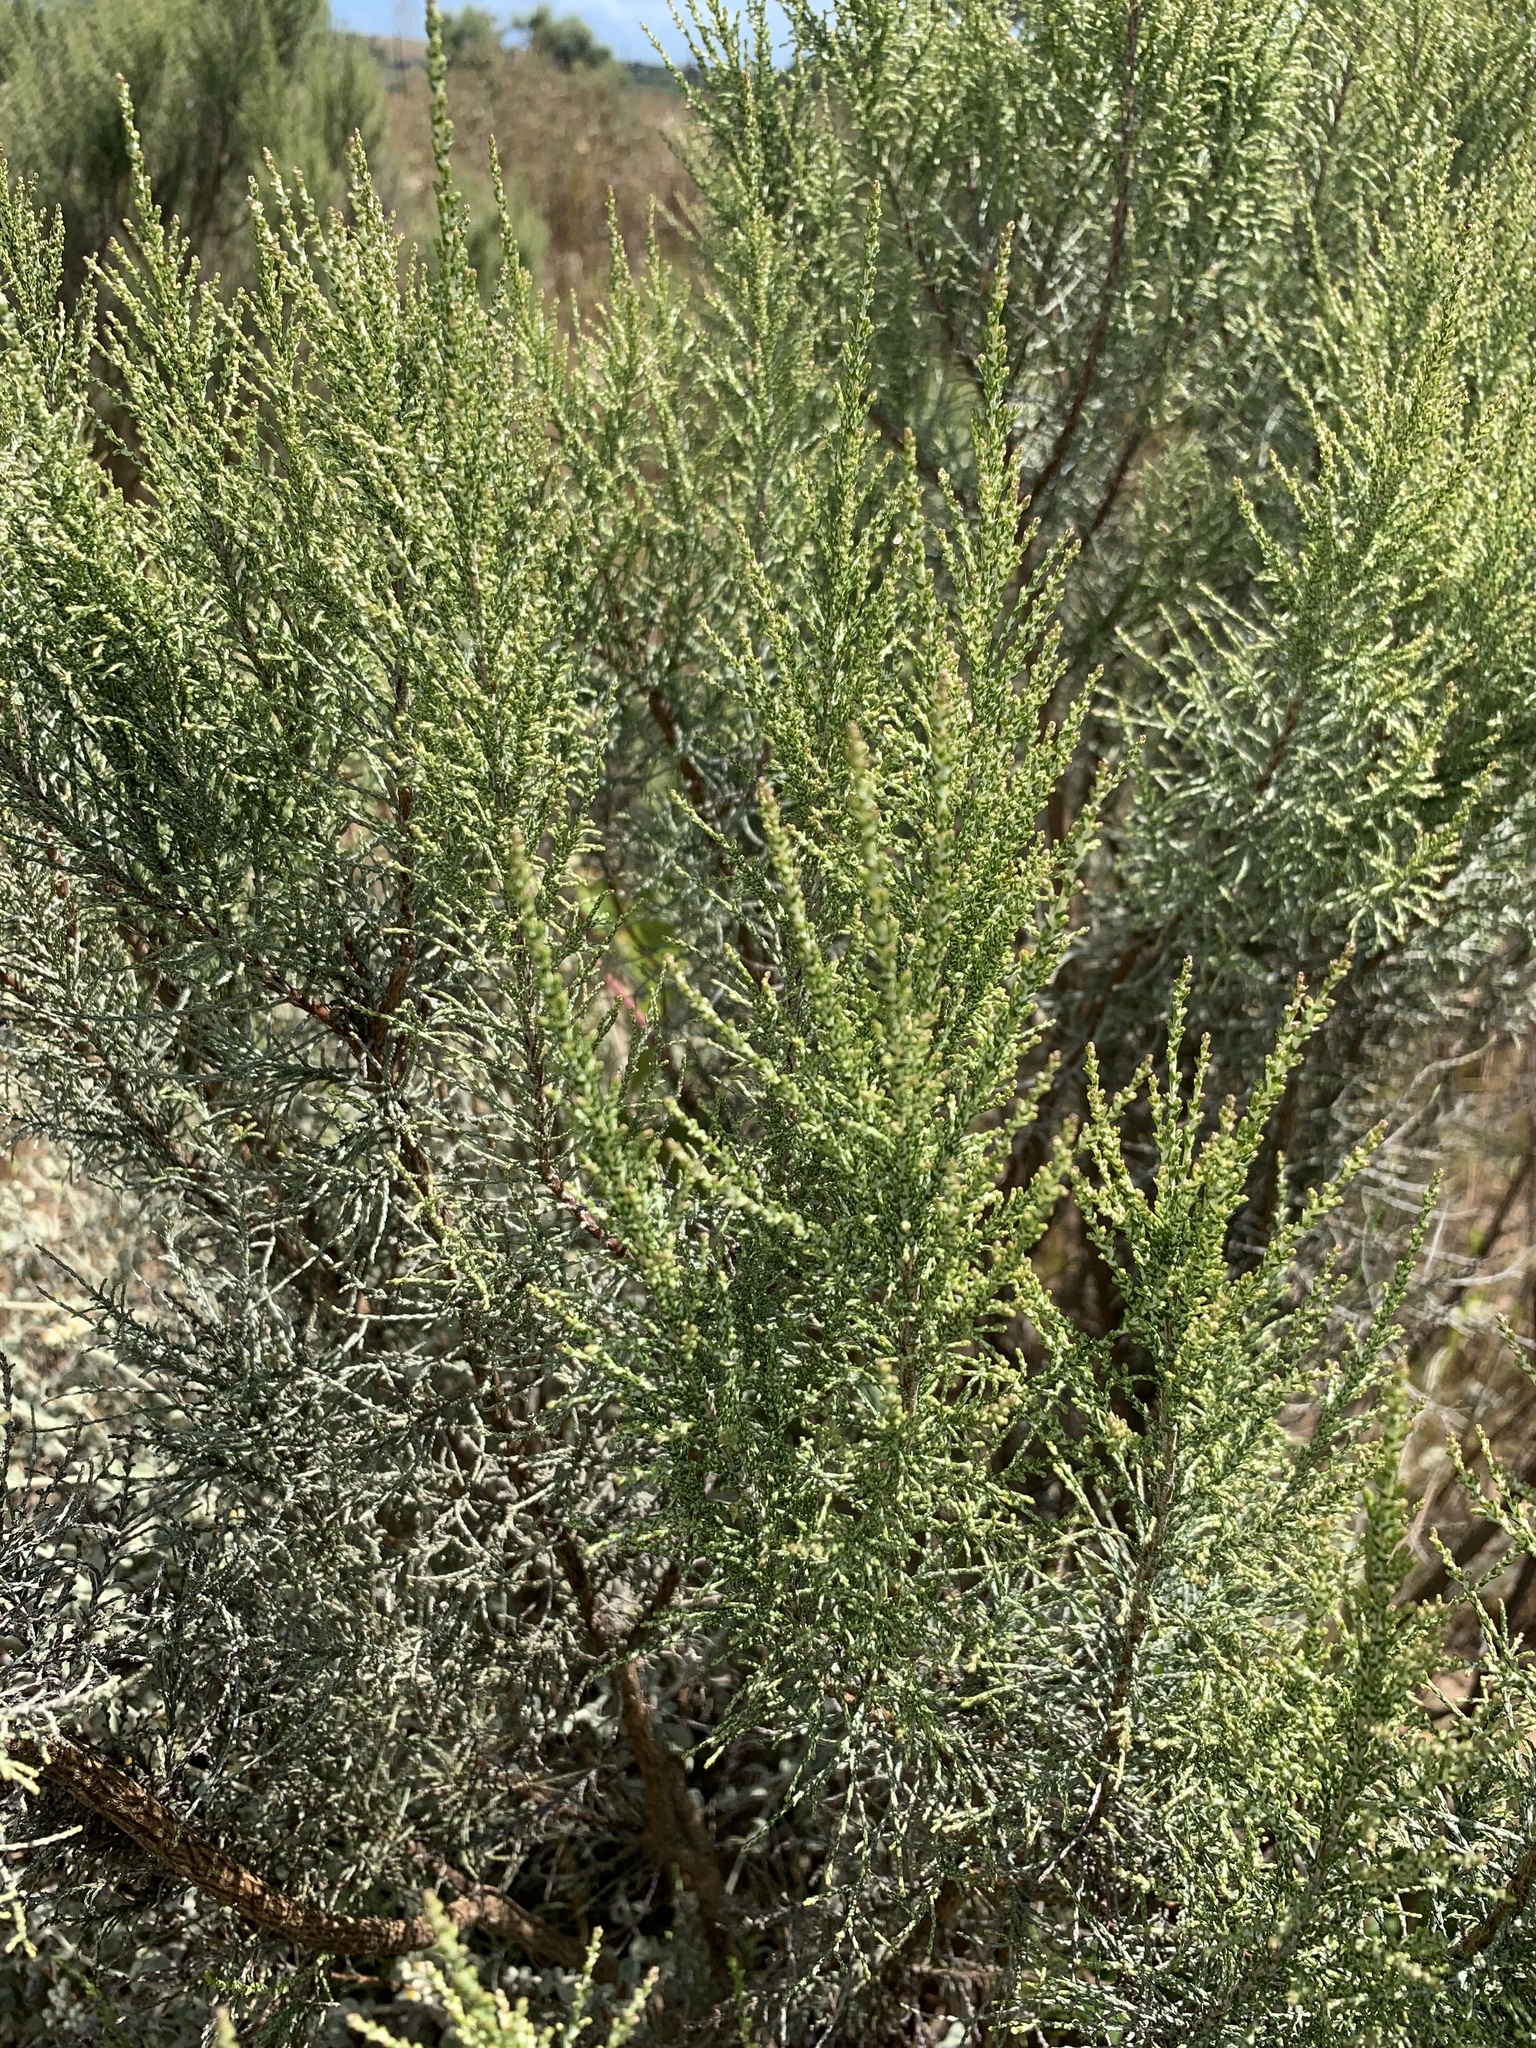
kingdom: Plantae
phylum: Tracheophyta
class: Magnoliopsida
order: Asterales
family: Asteraceae
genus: Dicerothamnus
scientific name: Dicerothamnus rhinocerotis
